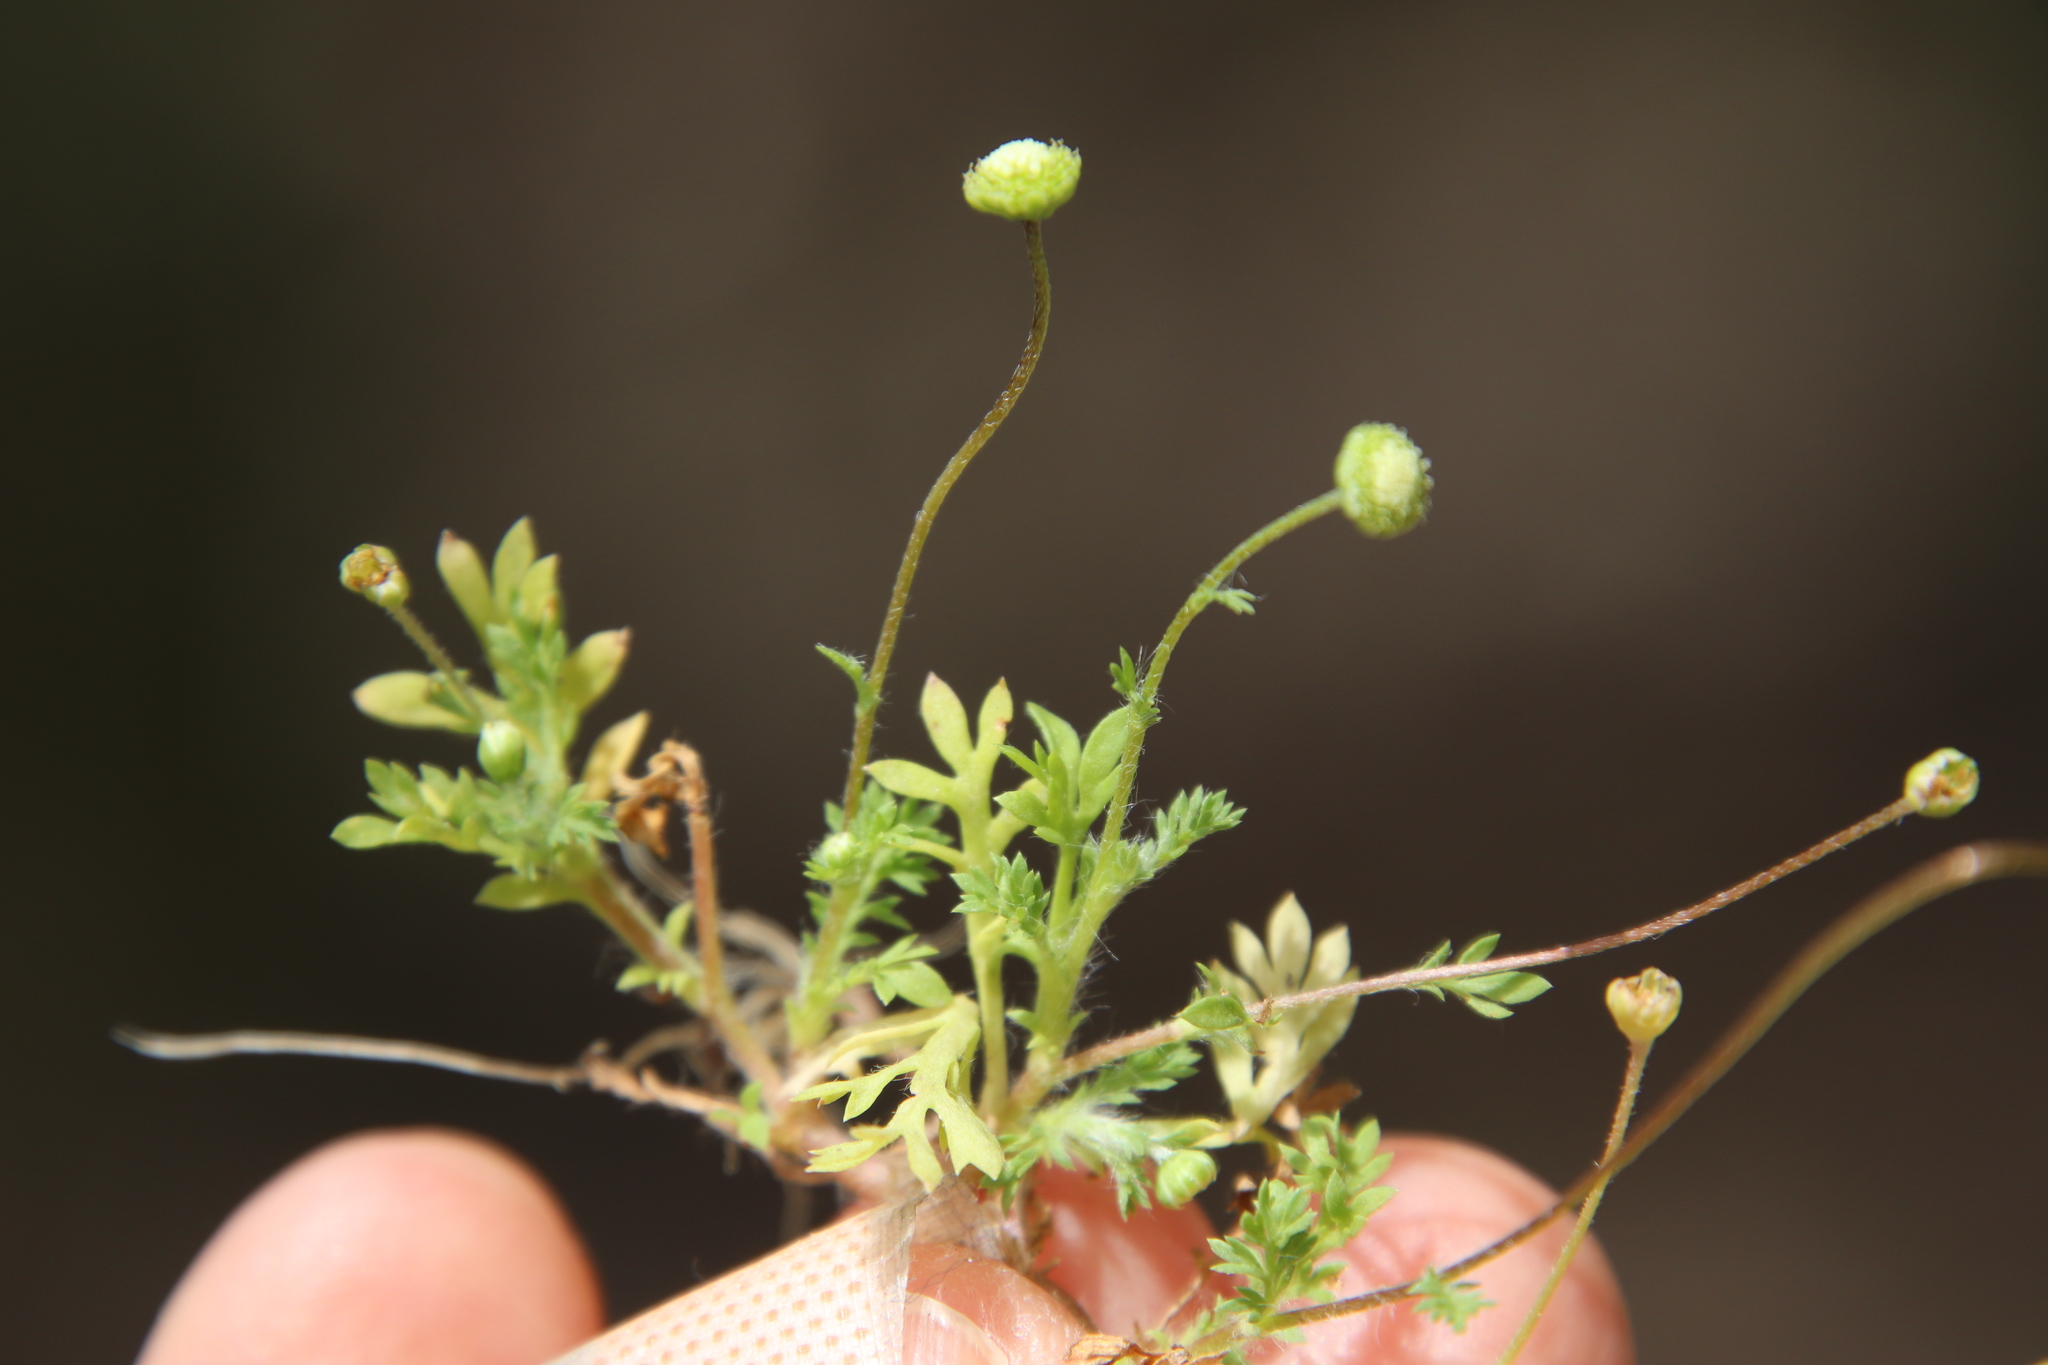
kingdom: Plantae
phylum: Tracheophyta
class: Magnoliopsida
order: Asterales
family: Asteraceae
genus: Cotula
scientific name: Cotula australis
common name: Australian waterbuttons
